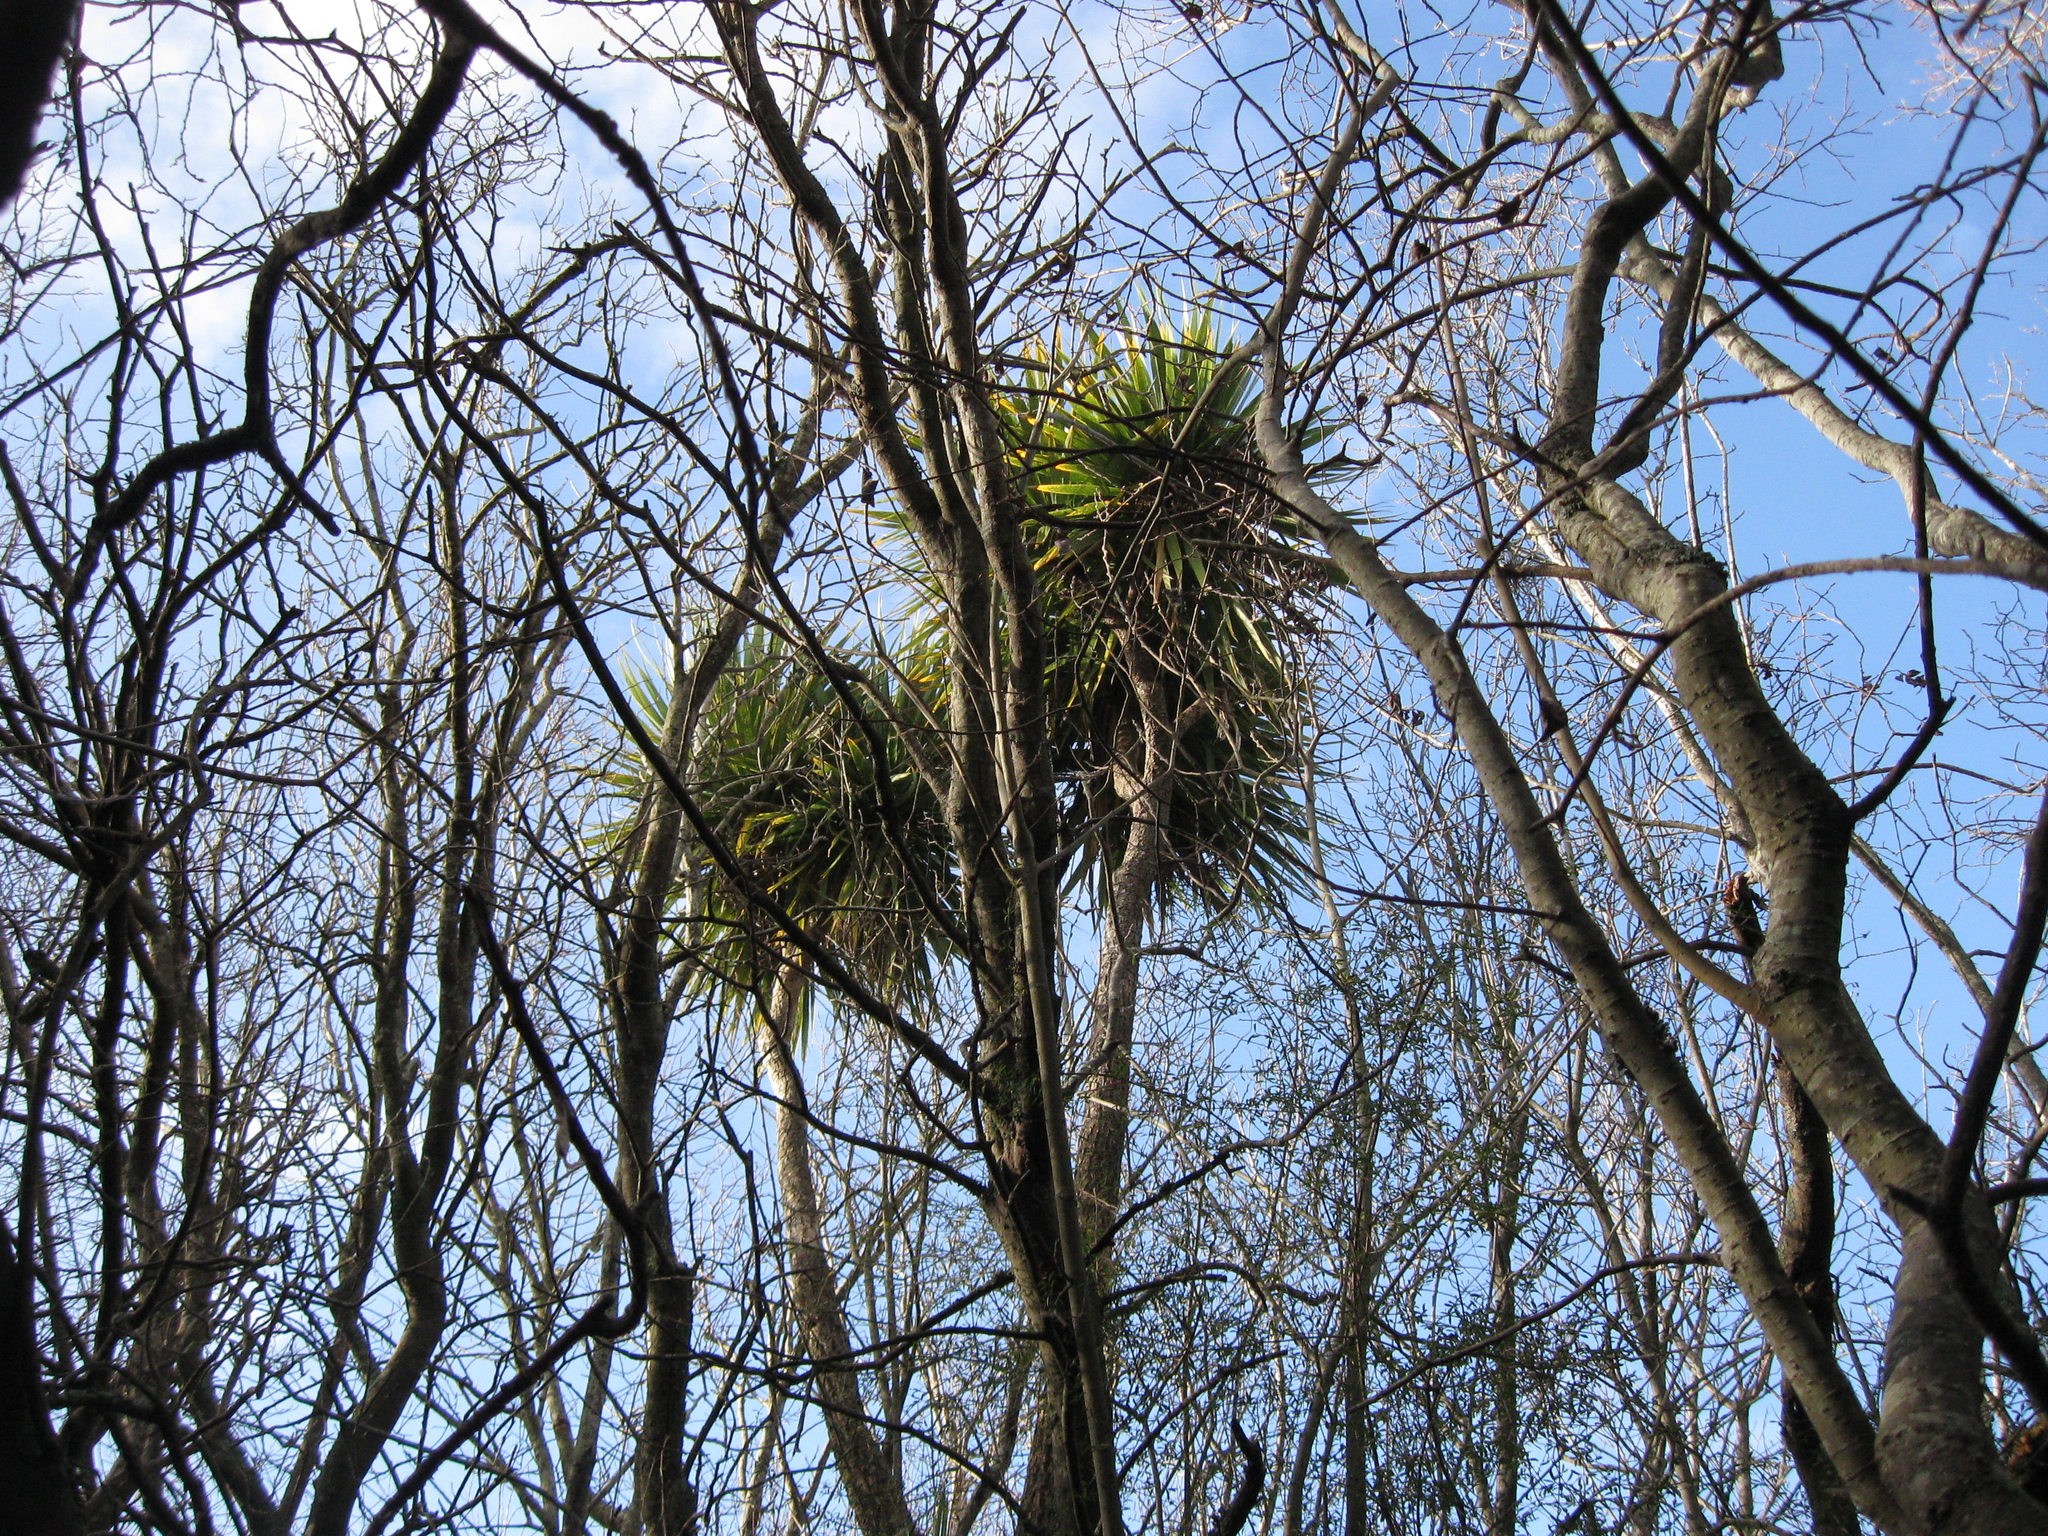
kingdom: Plantae
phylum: Tracheophyta
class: Liliopsida
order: Asparagales
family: Asparagaceae
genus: Cordyline
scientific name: Cordyline australis
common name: Cabbage-palm
